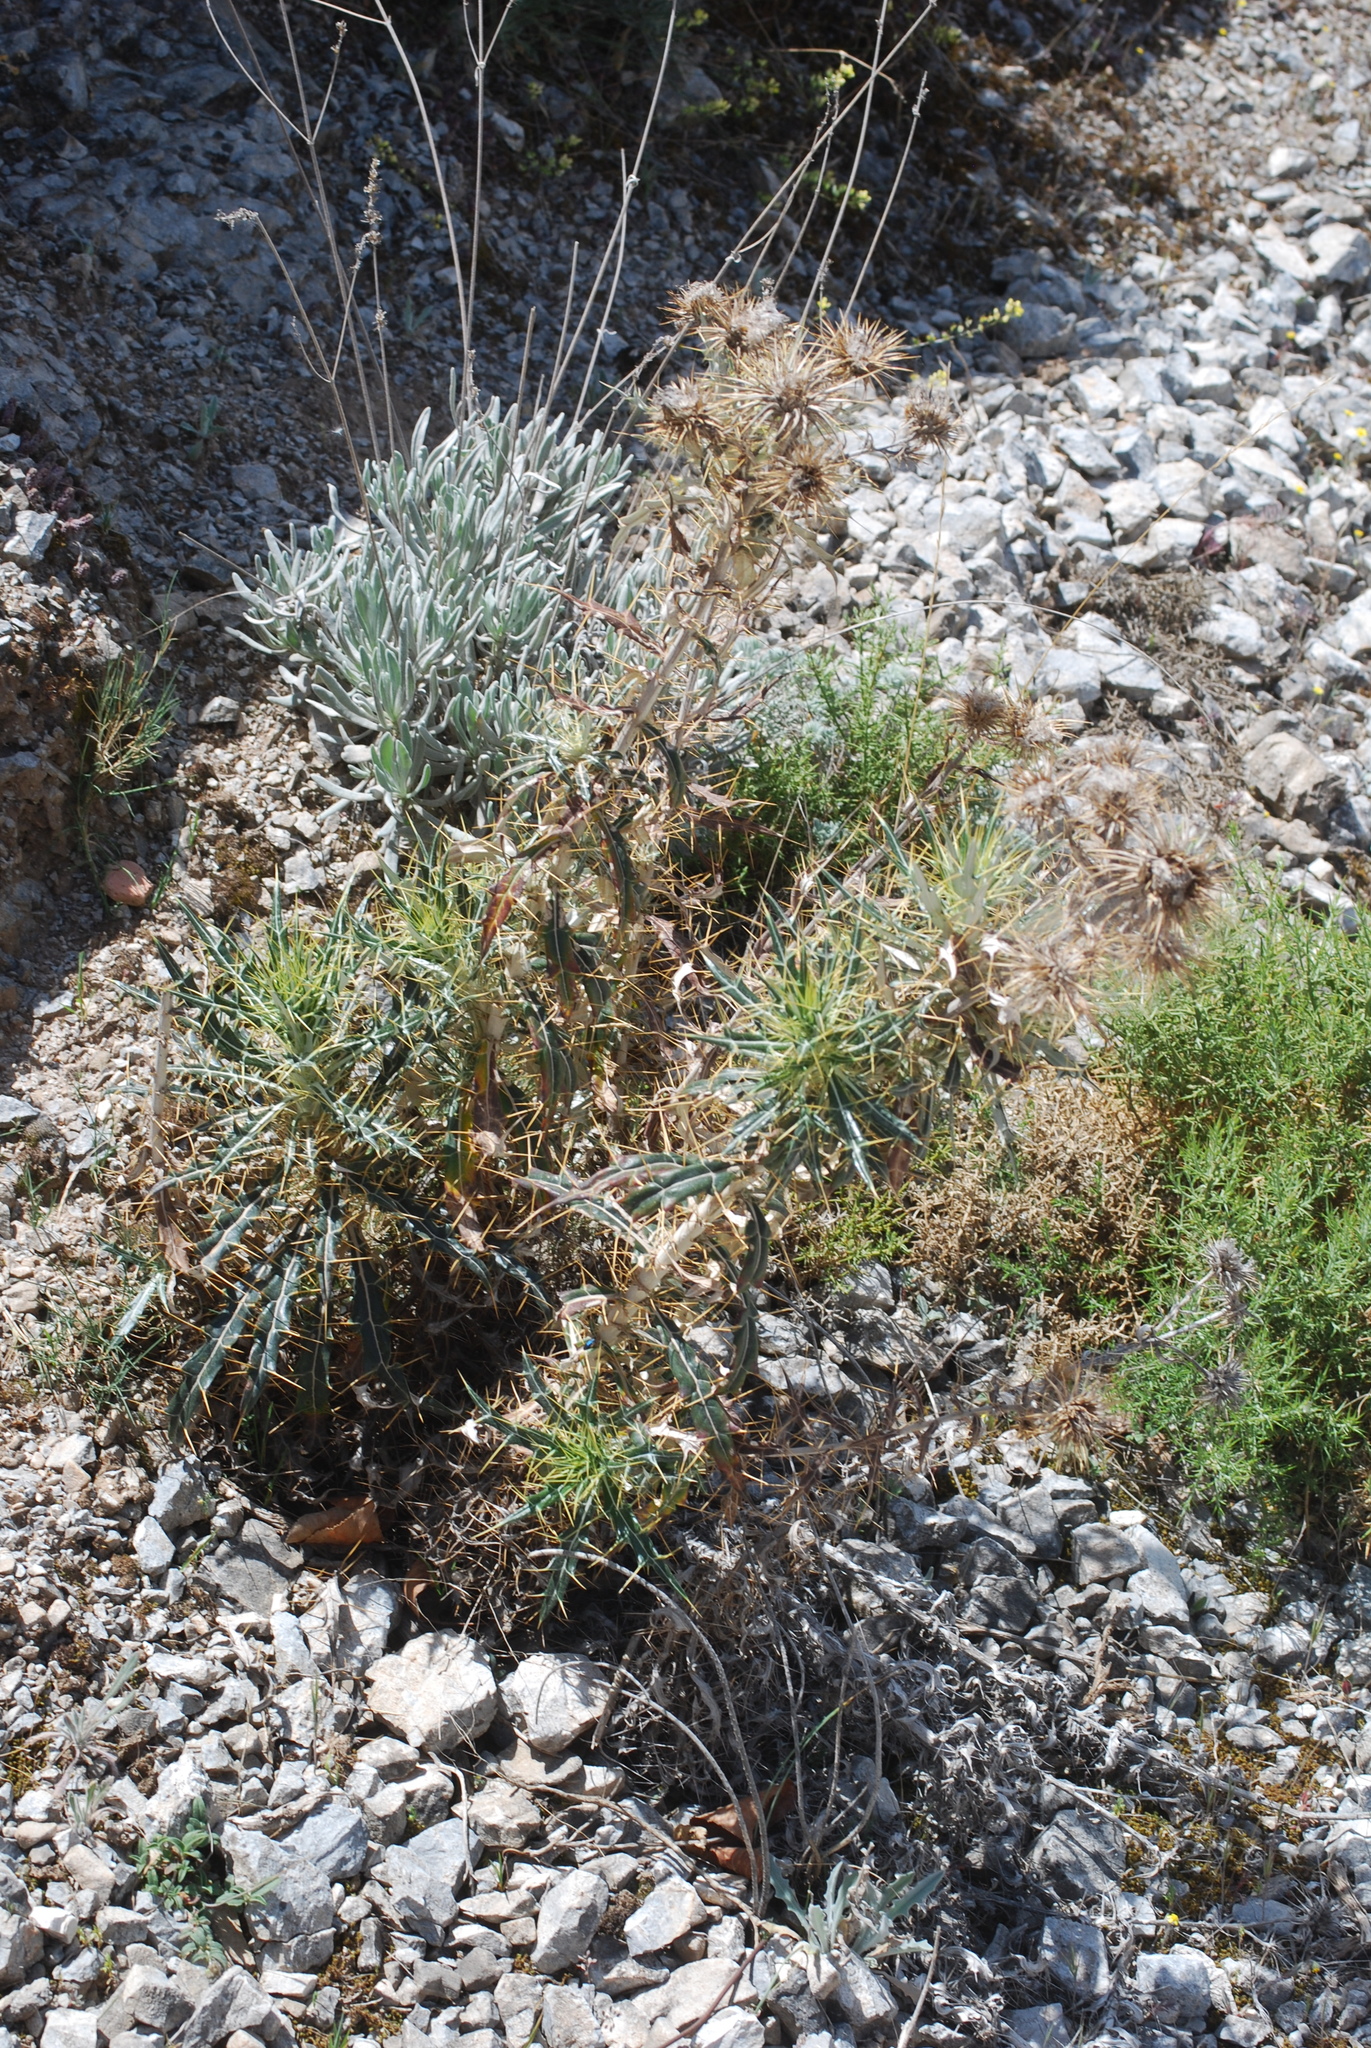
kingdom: Plantae
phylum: Tracheophyta
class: Magnoliopsida
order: Asterales
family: Asteraceae
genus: Ptilostemon
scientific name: Ptilostemon hispanicus
